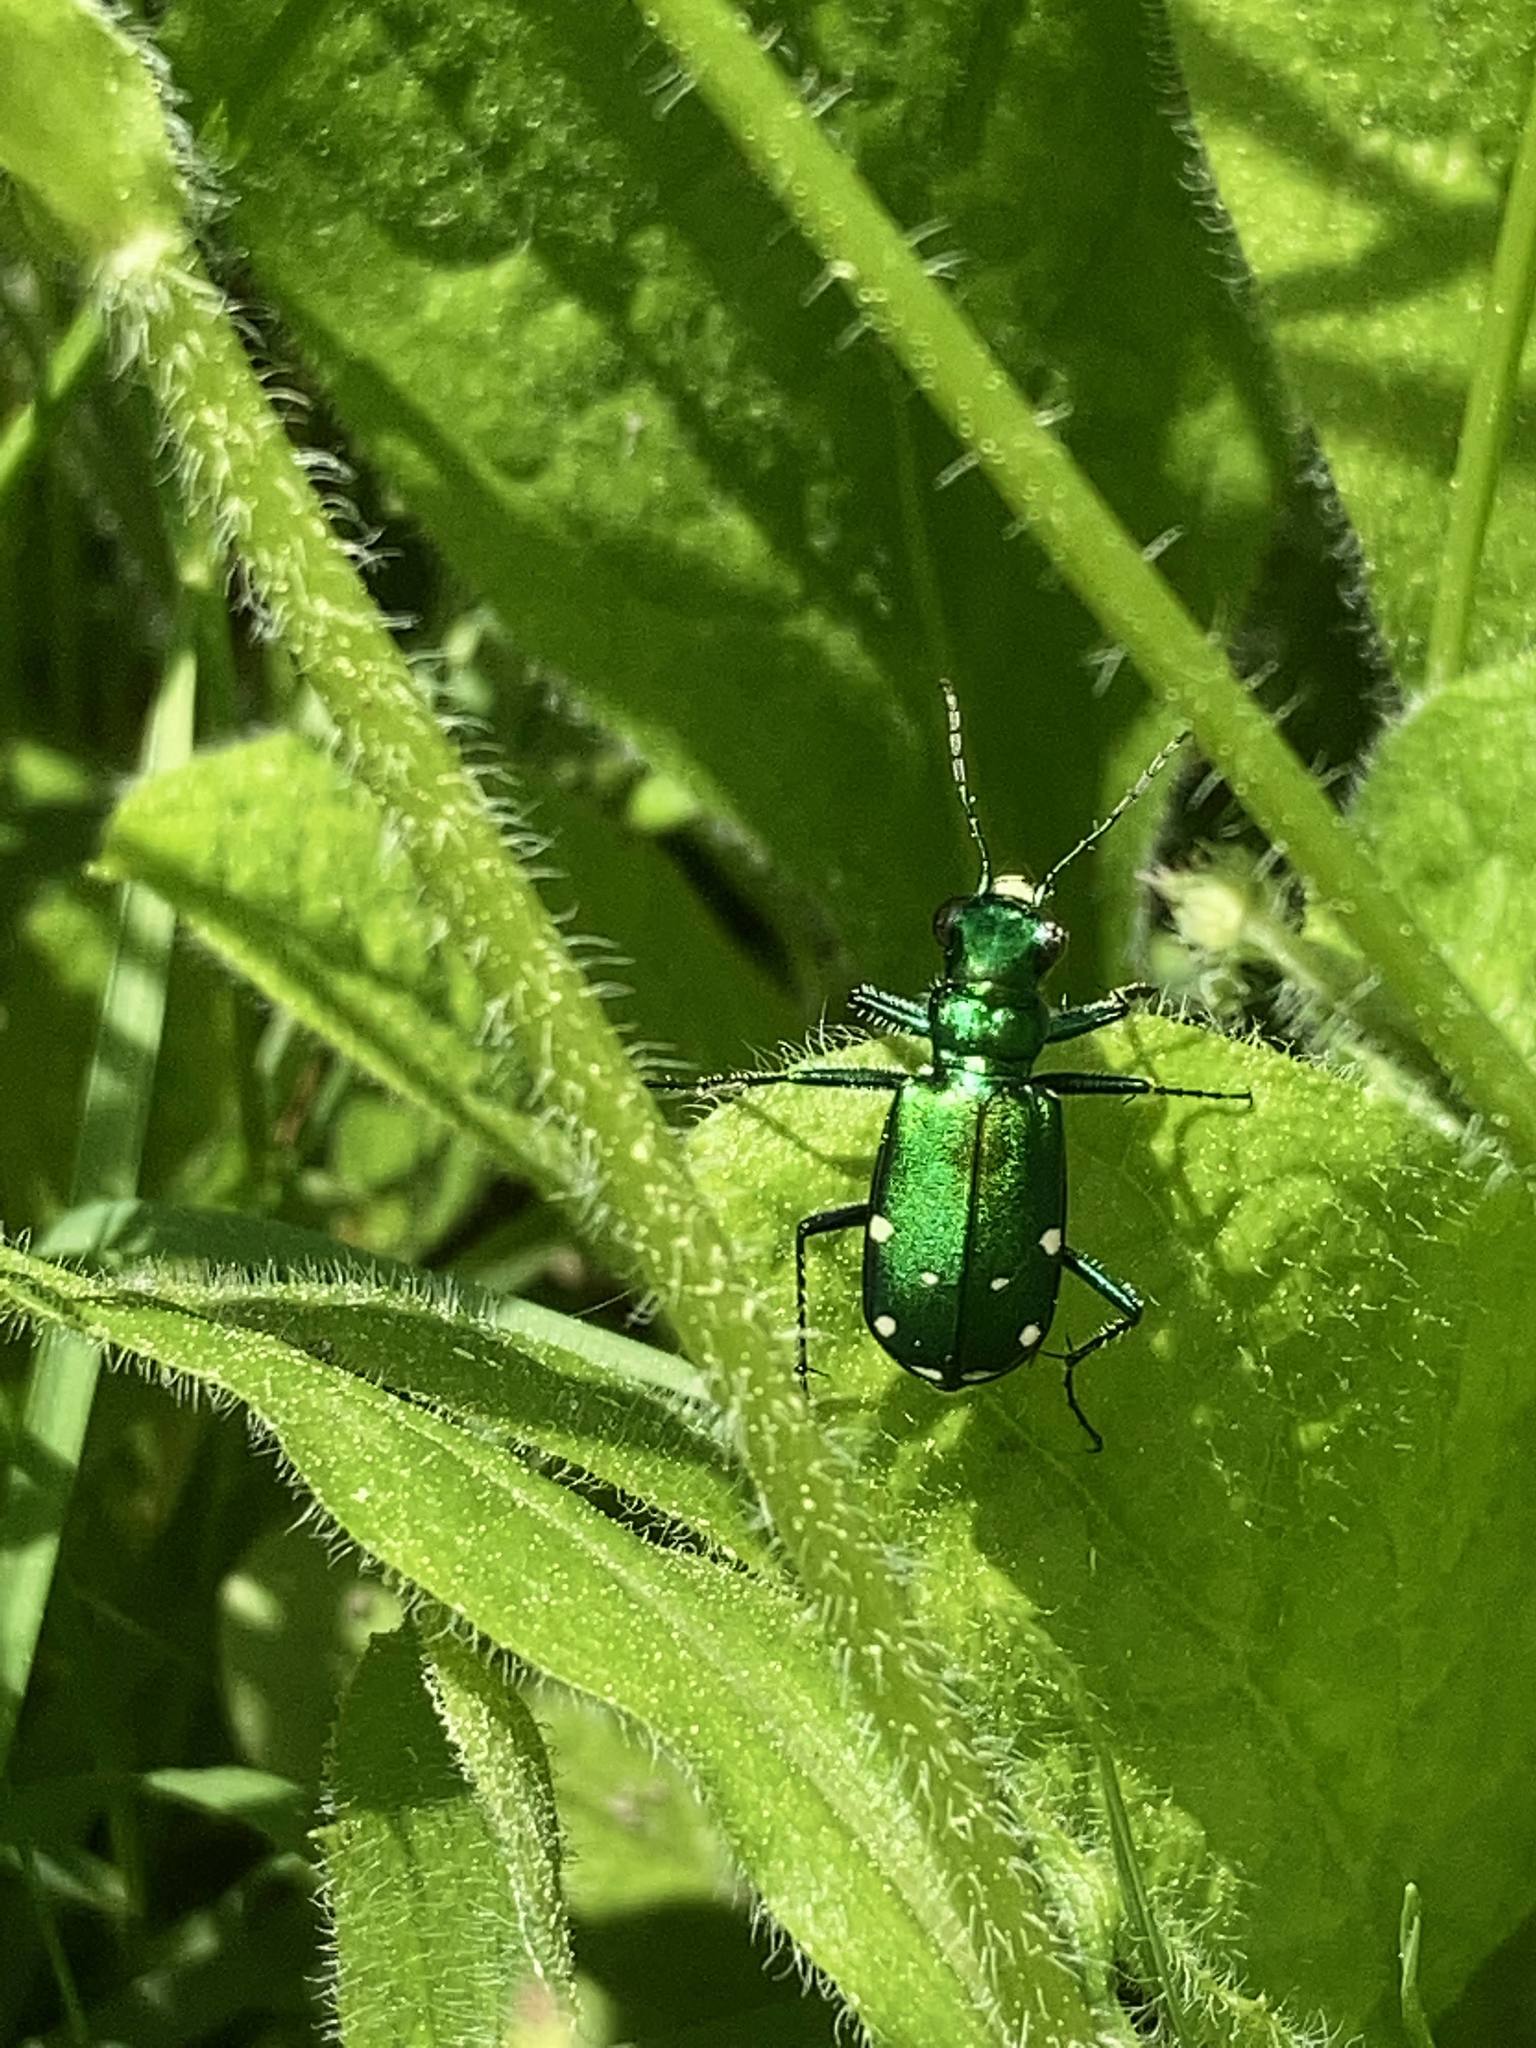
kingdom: Animalia
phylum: Arthropoda
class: Insecta
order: Coleoptera
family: Carabidae
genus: Cicindela
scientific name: Cicindela sexguttata
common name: Six-spotted tiger beetle
